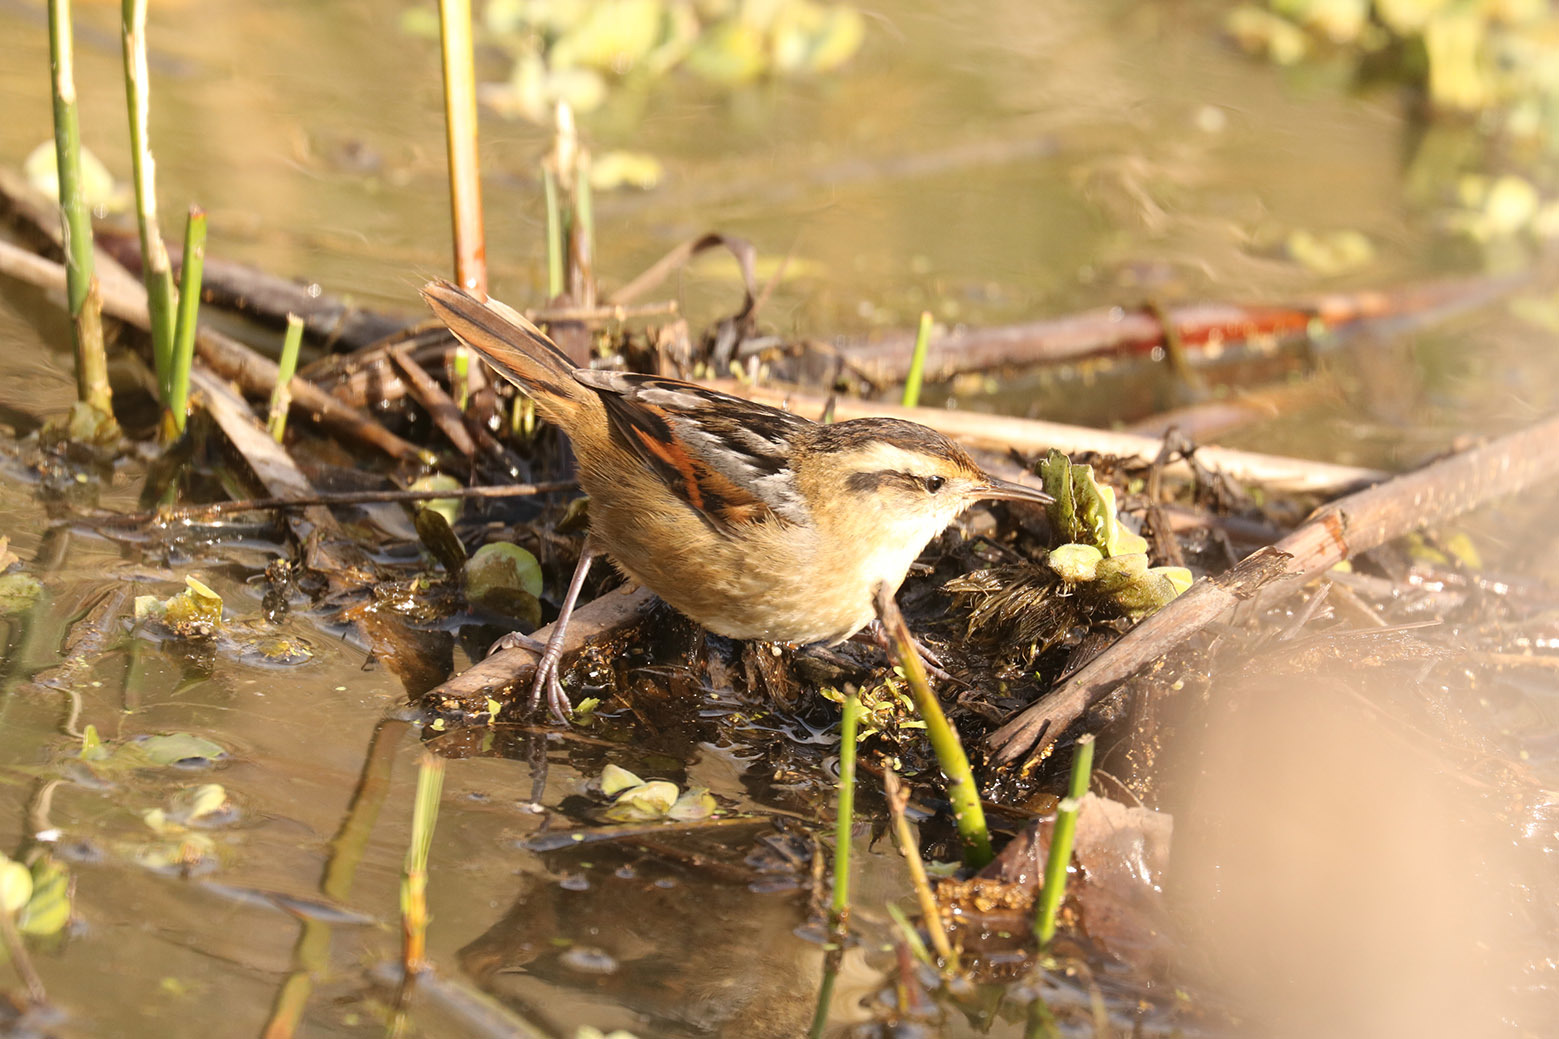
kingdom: Animalia
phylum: Chordata
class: Aves
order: Passeriformes
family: Furnariidae
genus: Phleocryptes
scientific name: Phleocryptes melanops
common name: Wren-like rushbird
